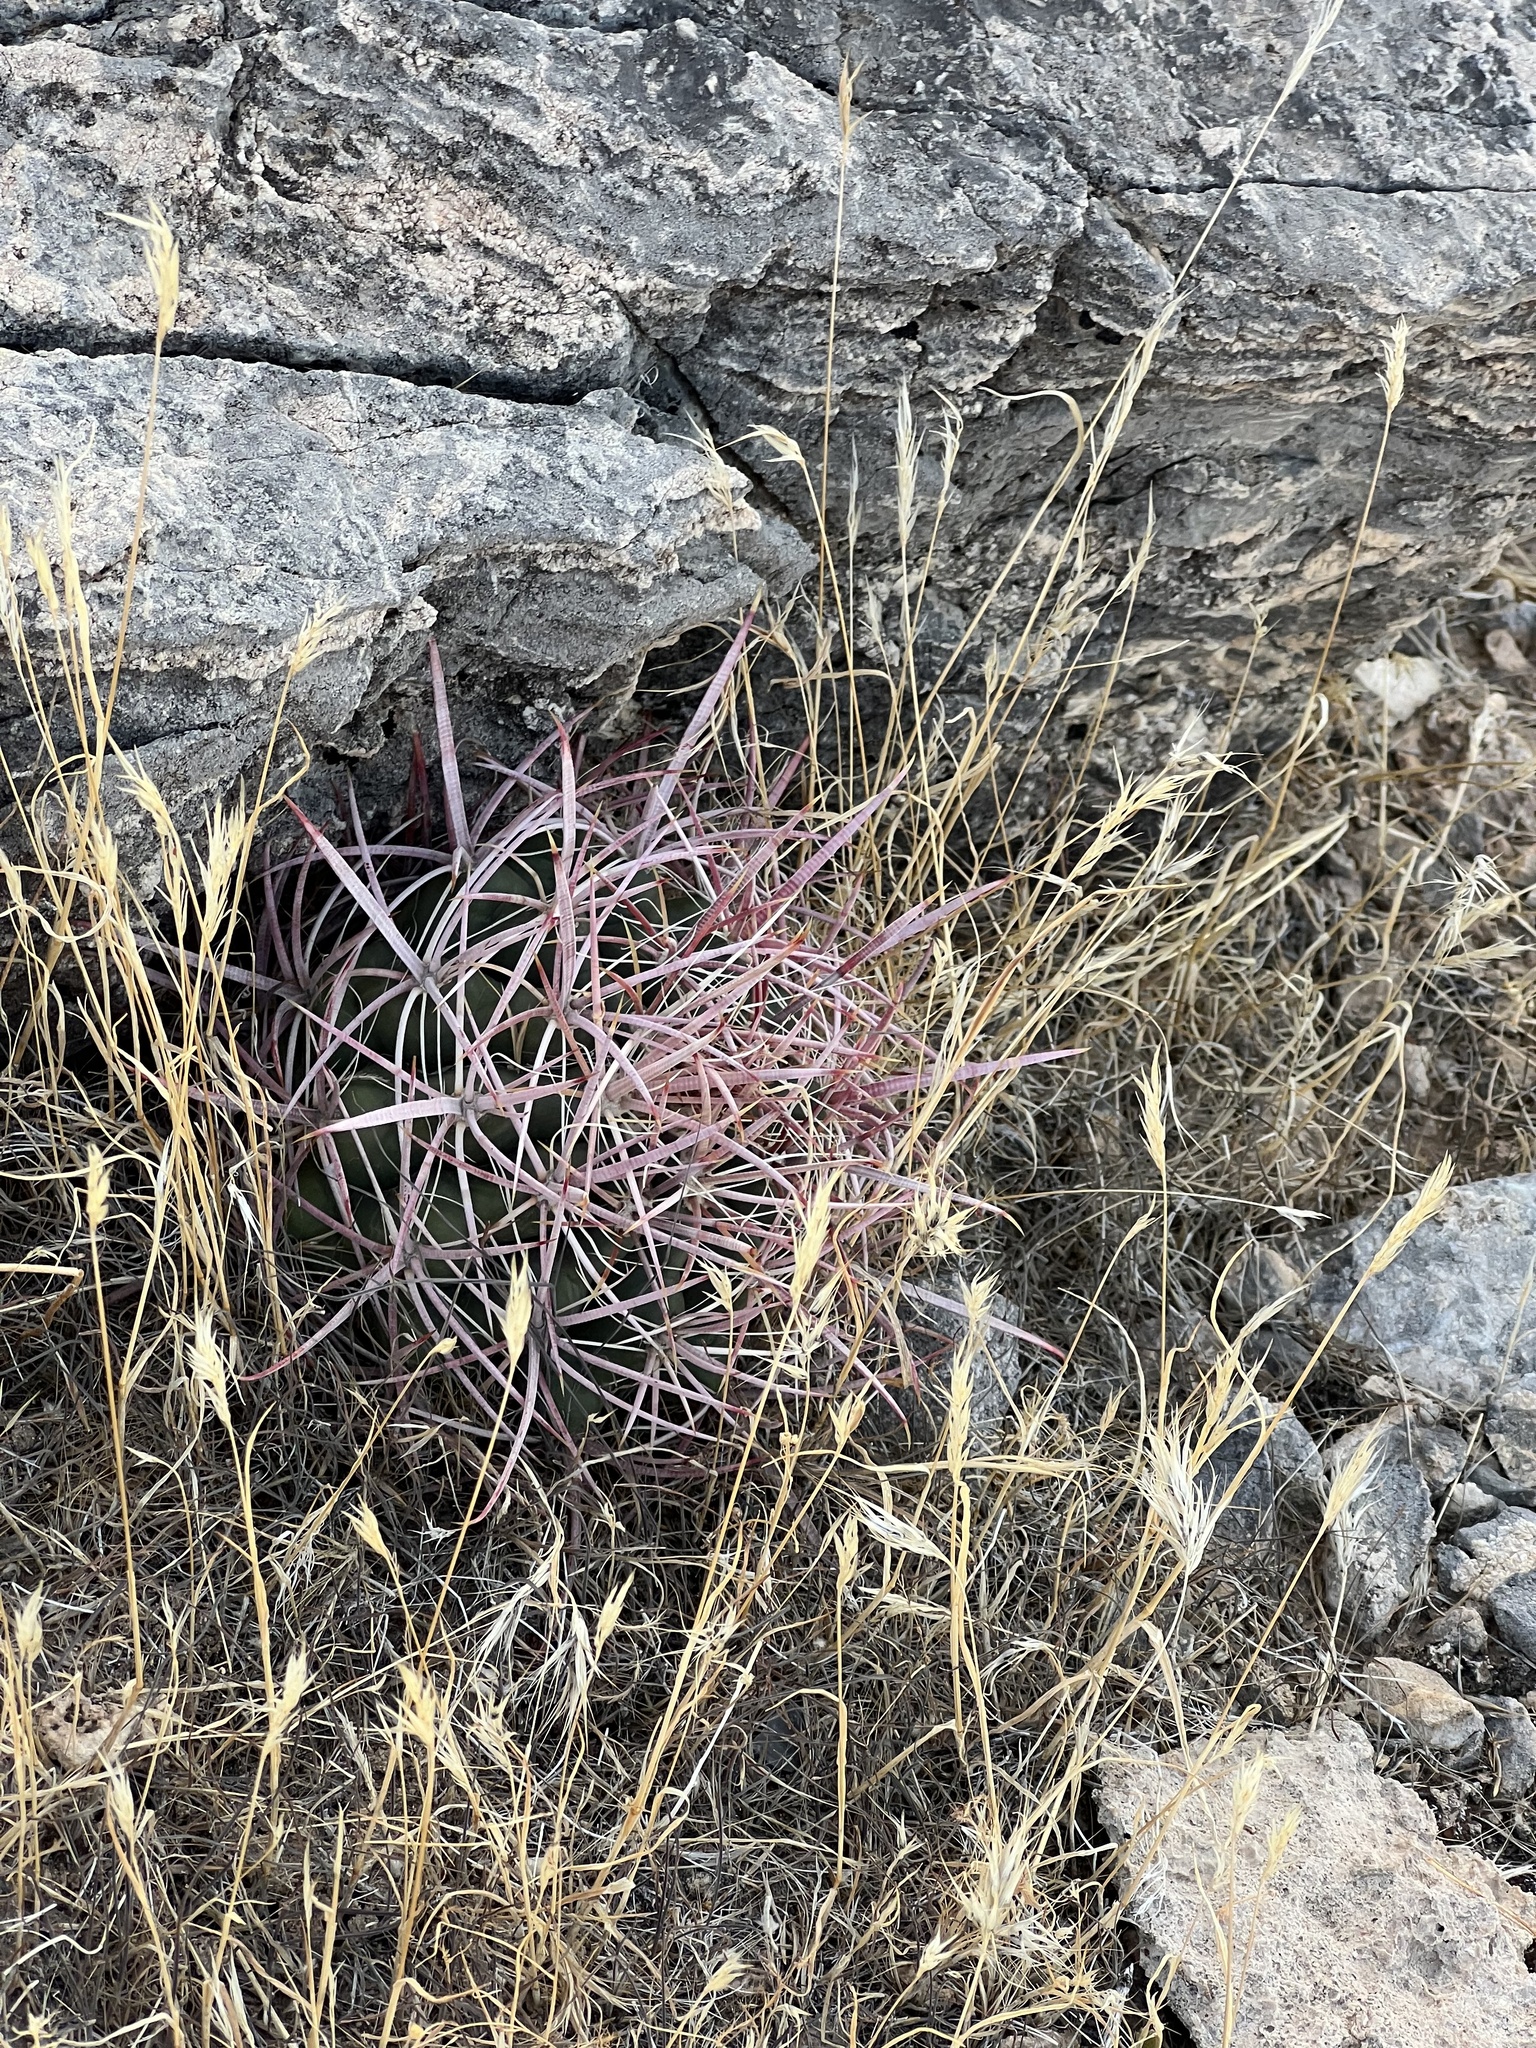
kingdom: Plantae
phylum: Tracheophyta
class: Magnoliopsida
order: Caryophyllales
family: Cactaceae
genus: Ferocactus
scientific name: Ferocactus cylindraceus
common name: California barrel cactus
